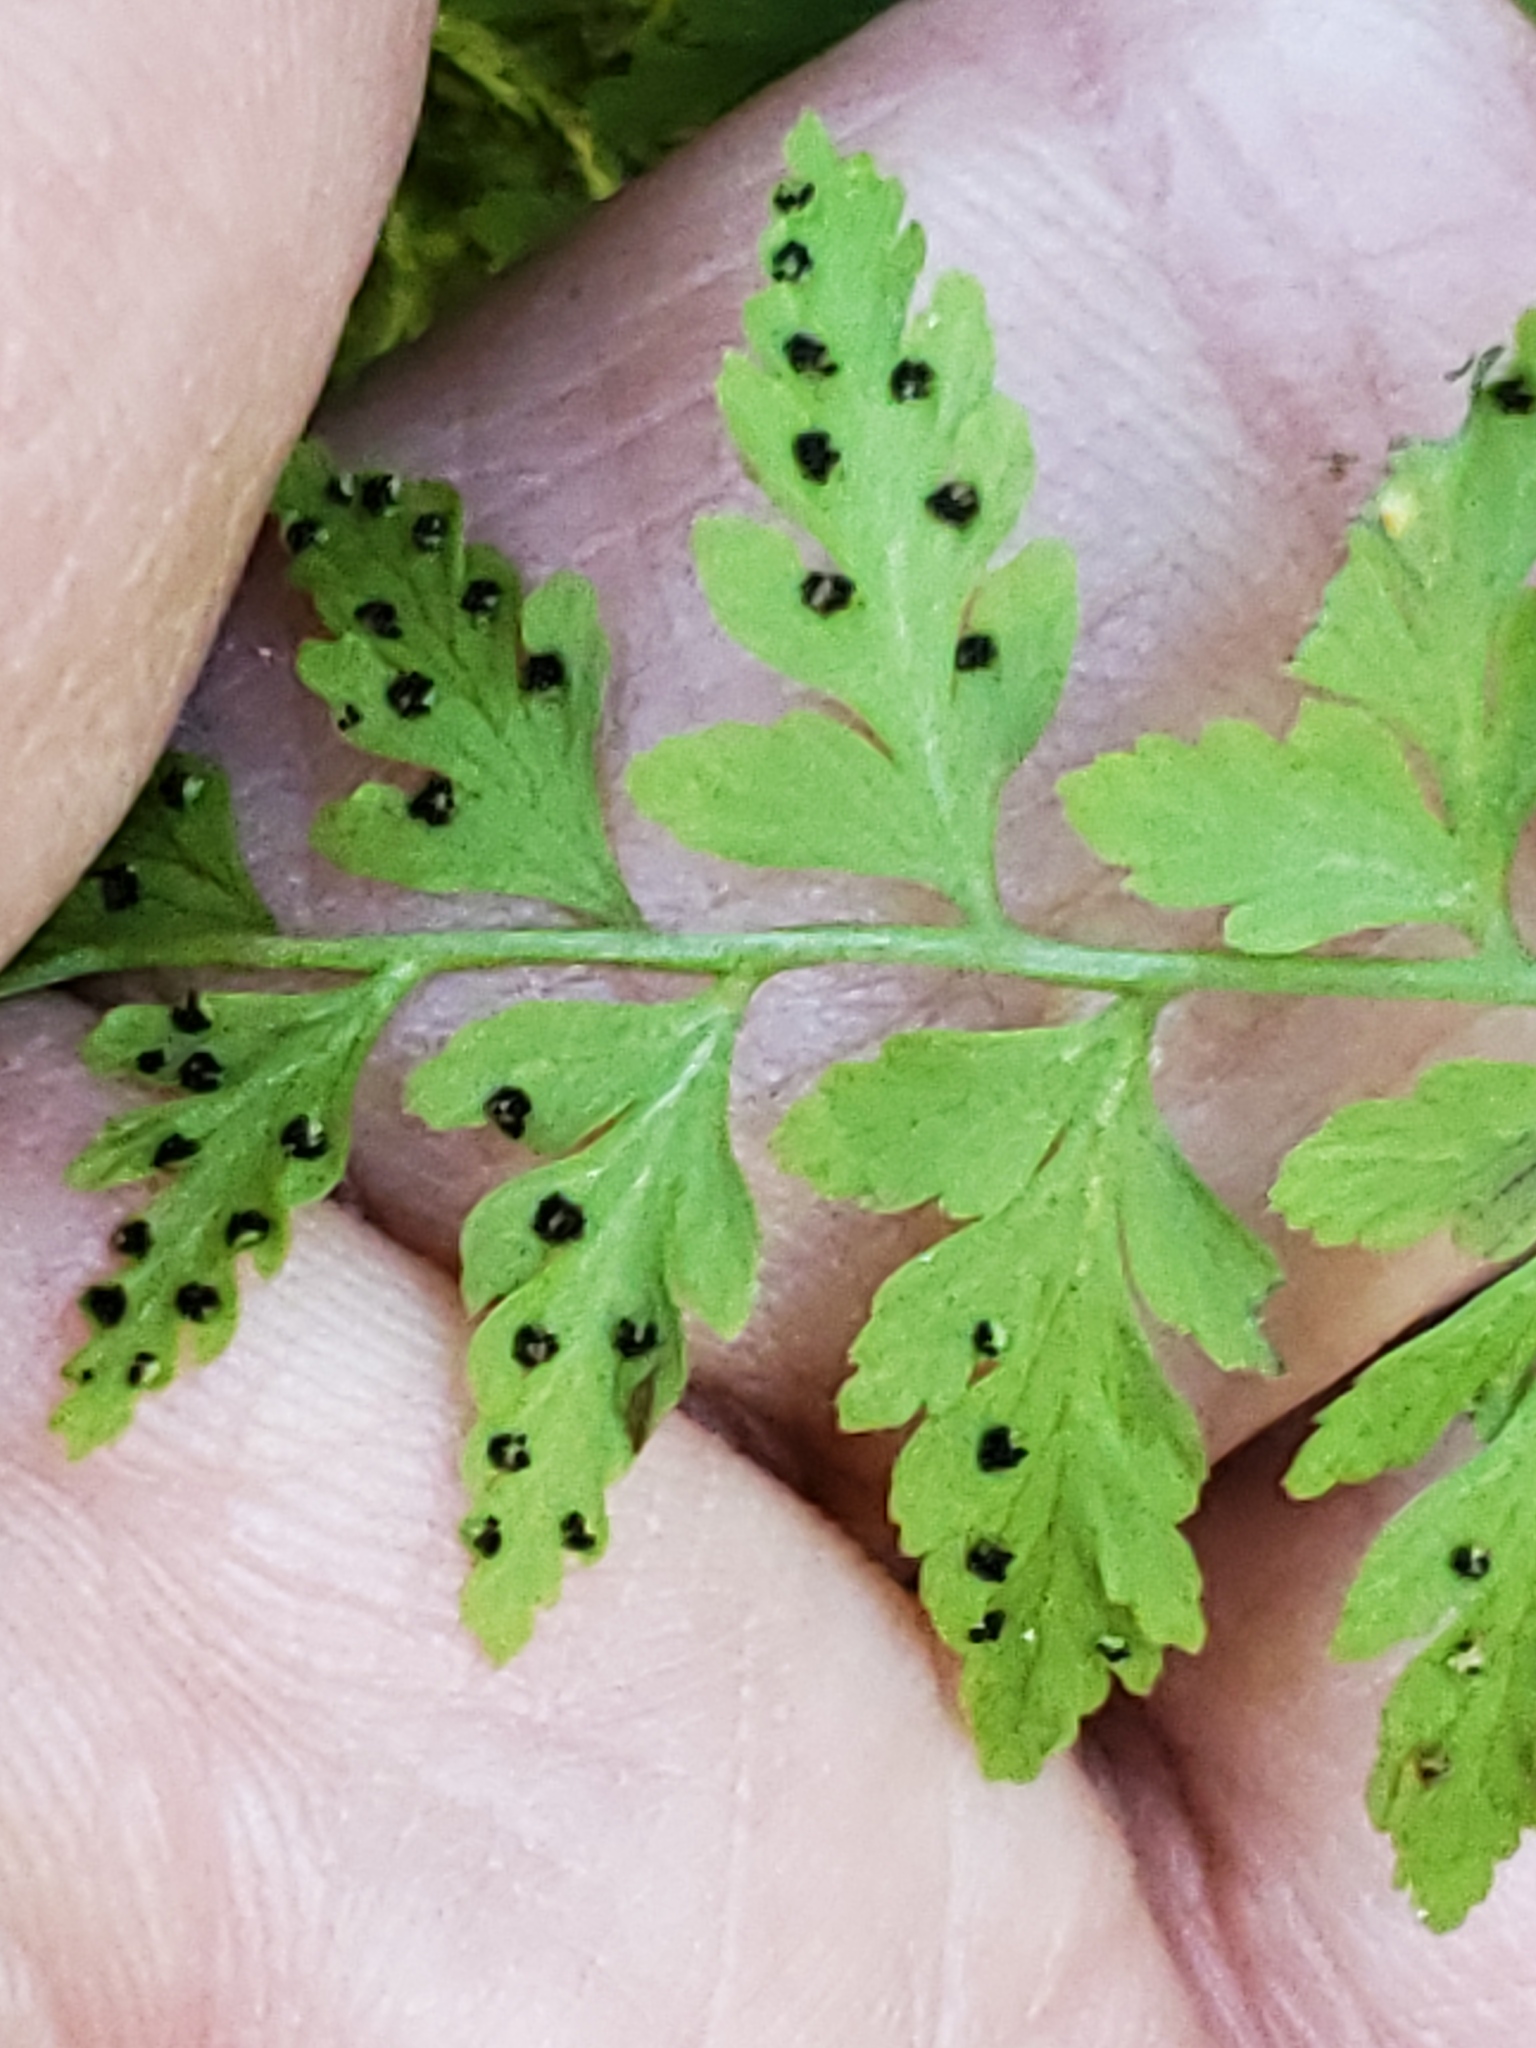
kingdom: Plantae
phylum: Tracheophyta
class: Polypodiopsida
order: Polypodiales
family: Cystopteridaceae
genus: Cystopteris
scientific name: Cystopteris fragilis
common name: Brittle bladder fern
